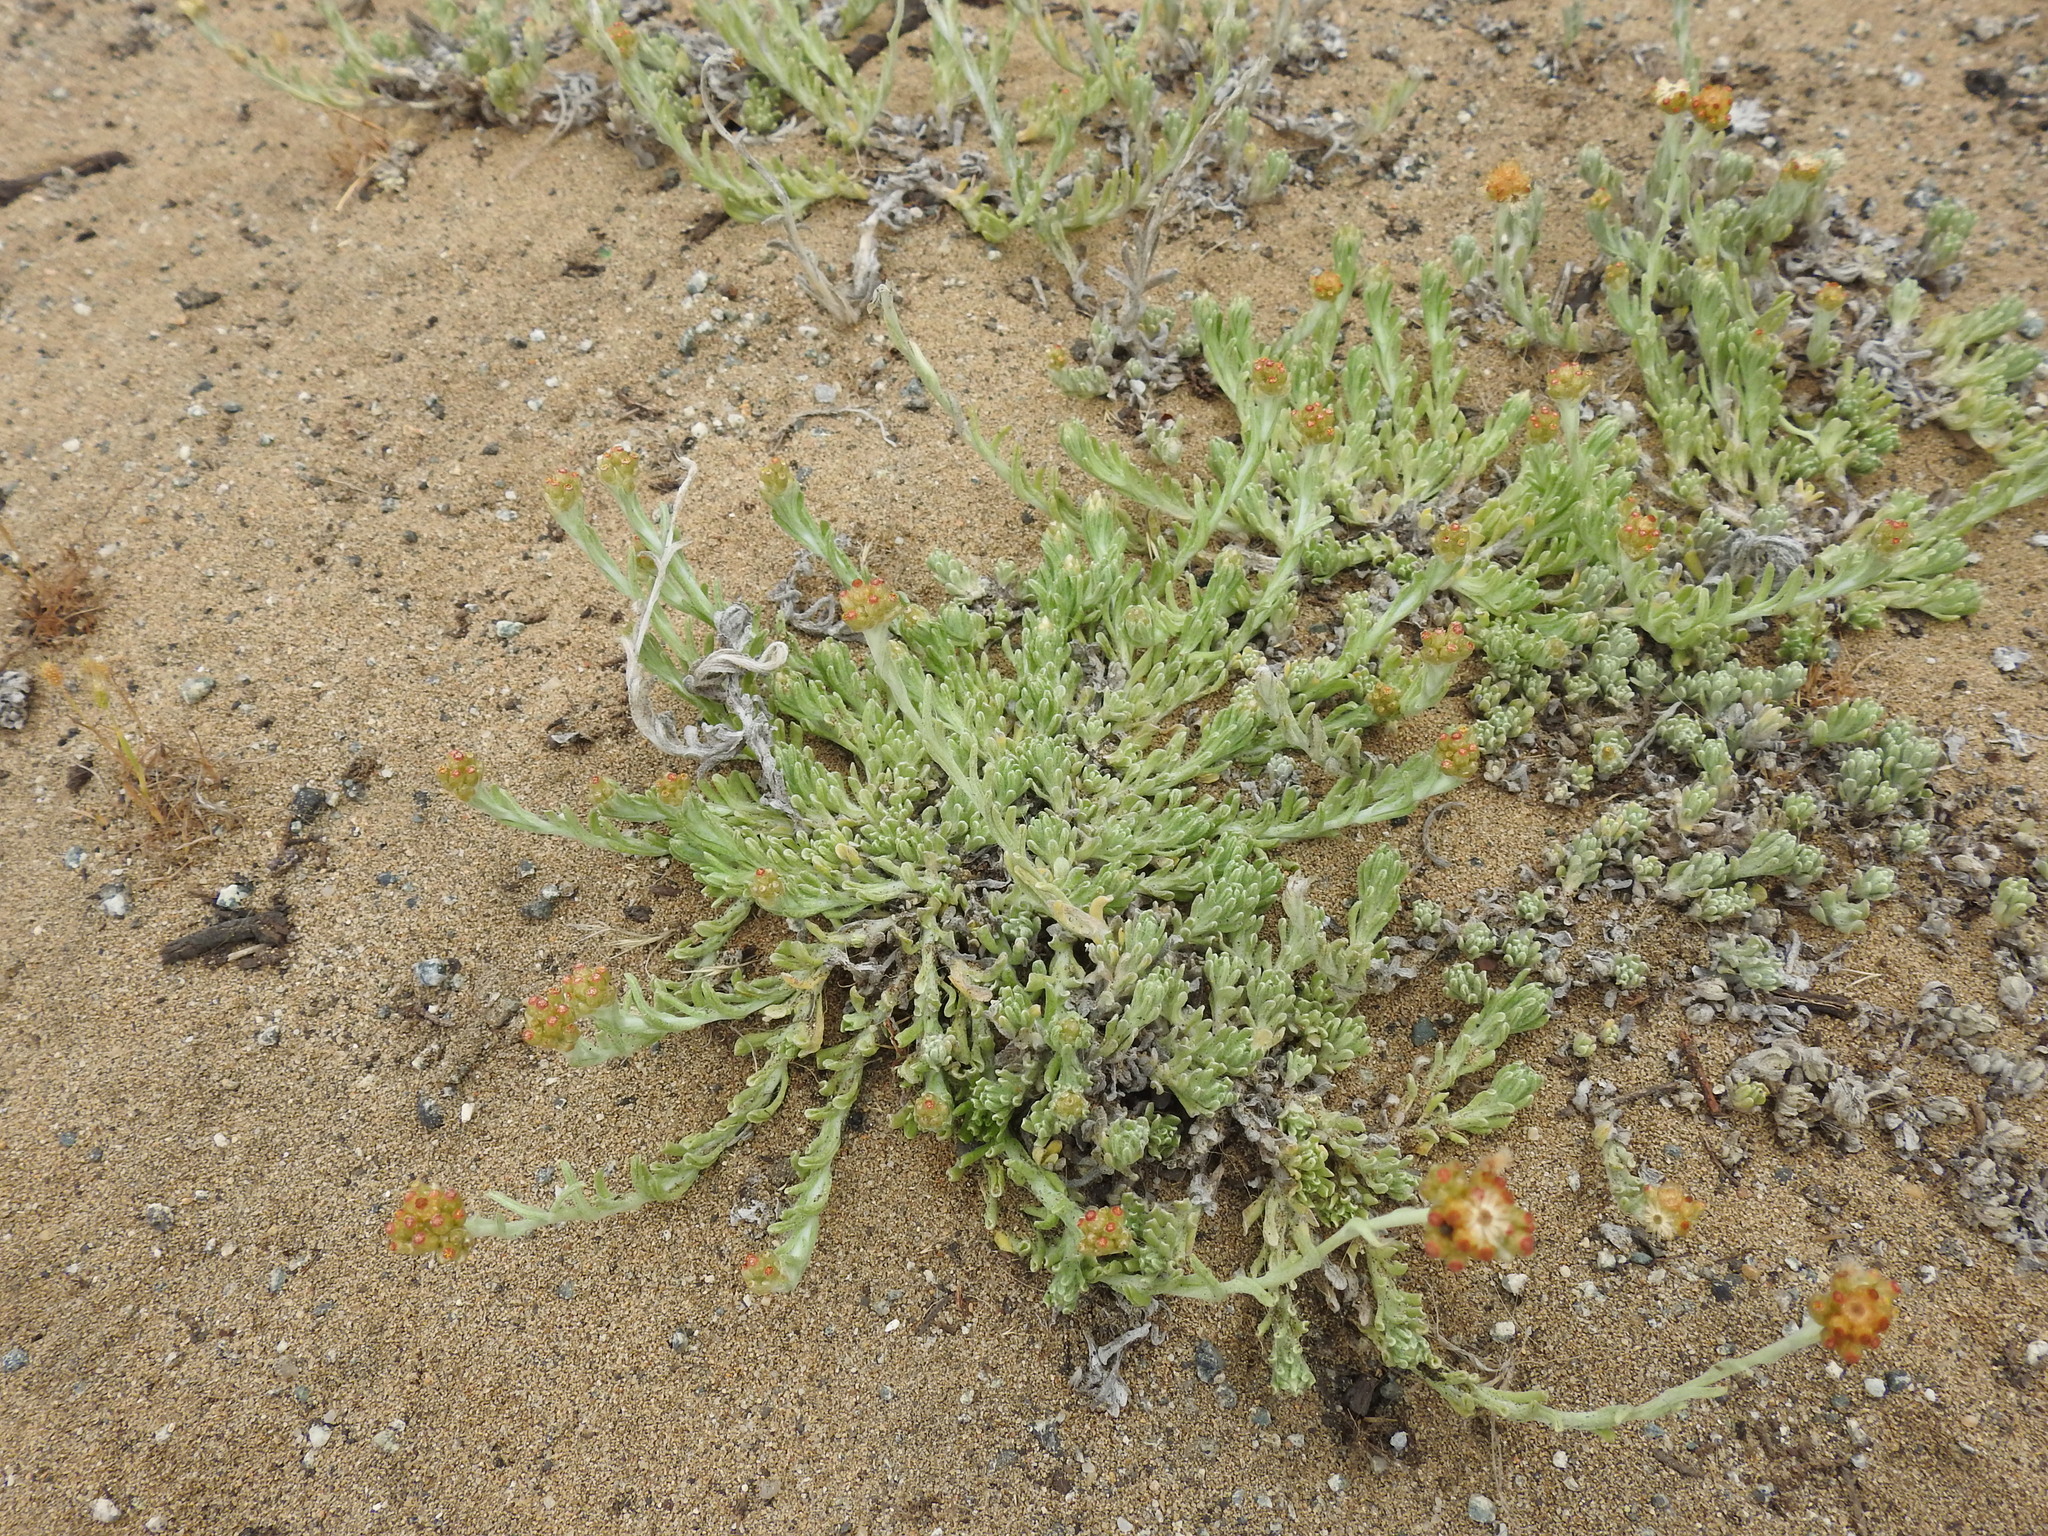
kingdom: Plantae
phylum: Tracheophyta
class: Magnoliopsida
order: Asterales
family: Asteraceae
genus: Helichrysum
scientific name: Helichrysum luteoalbum
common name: Daisy
